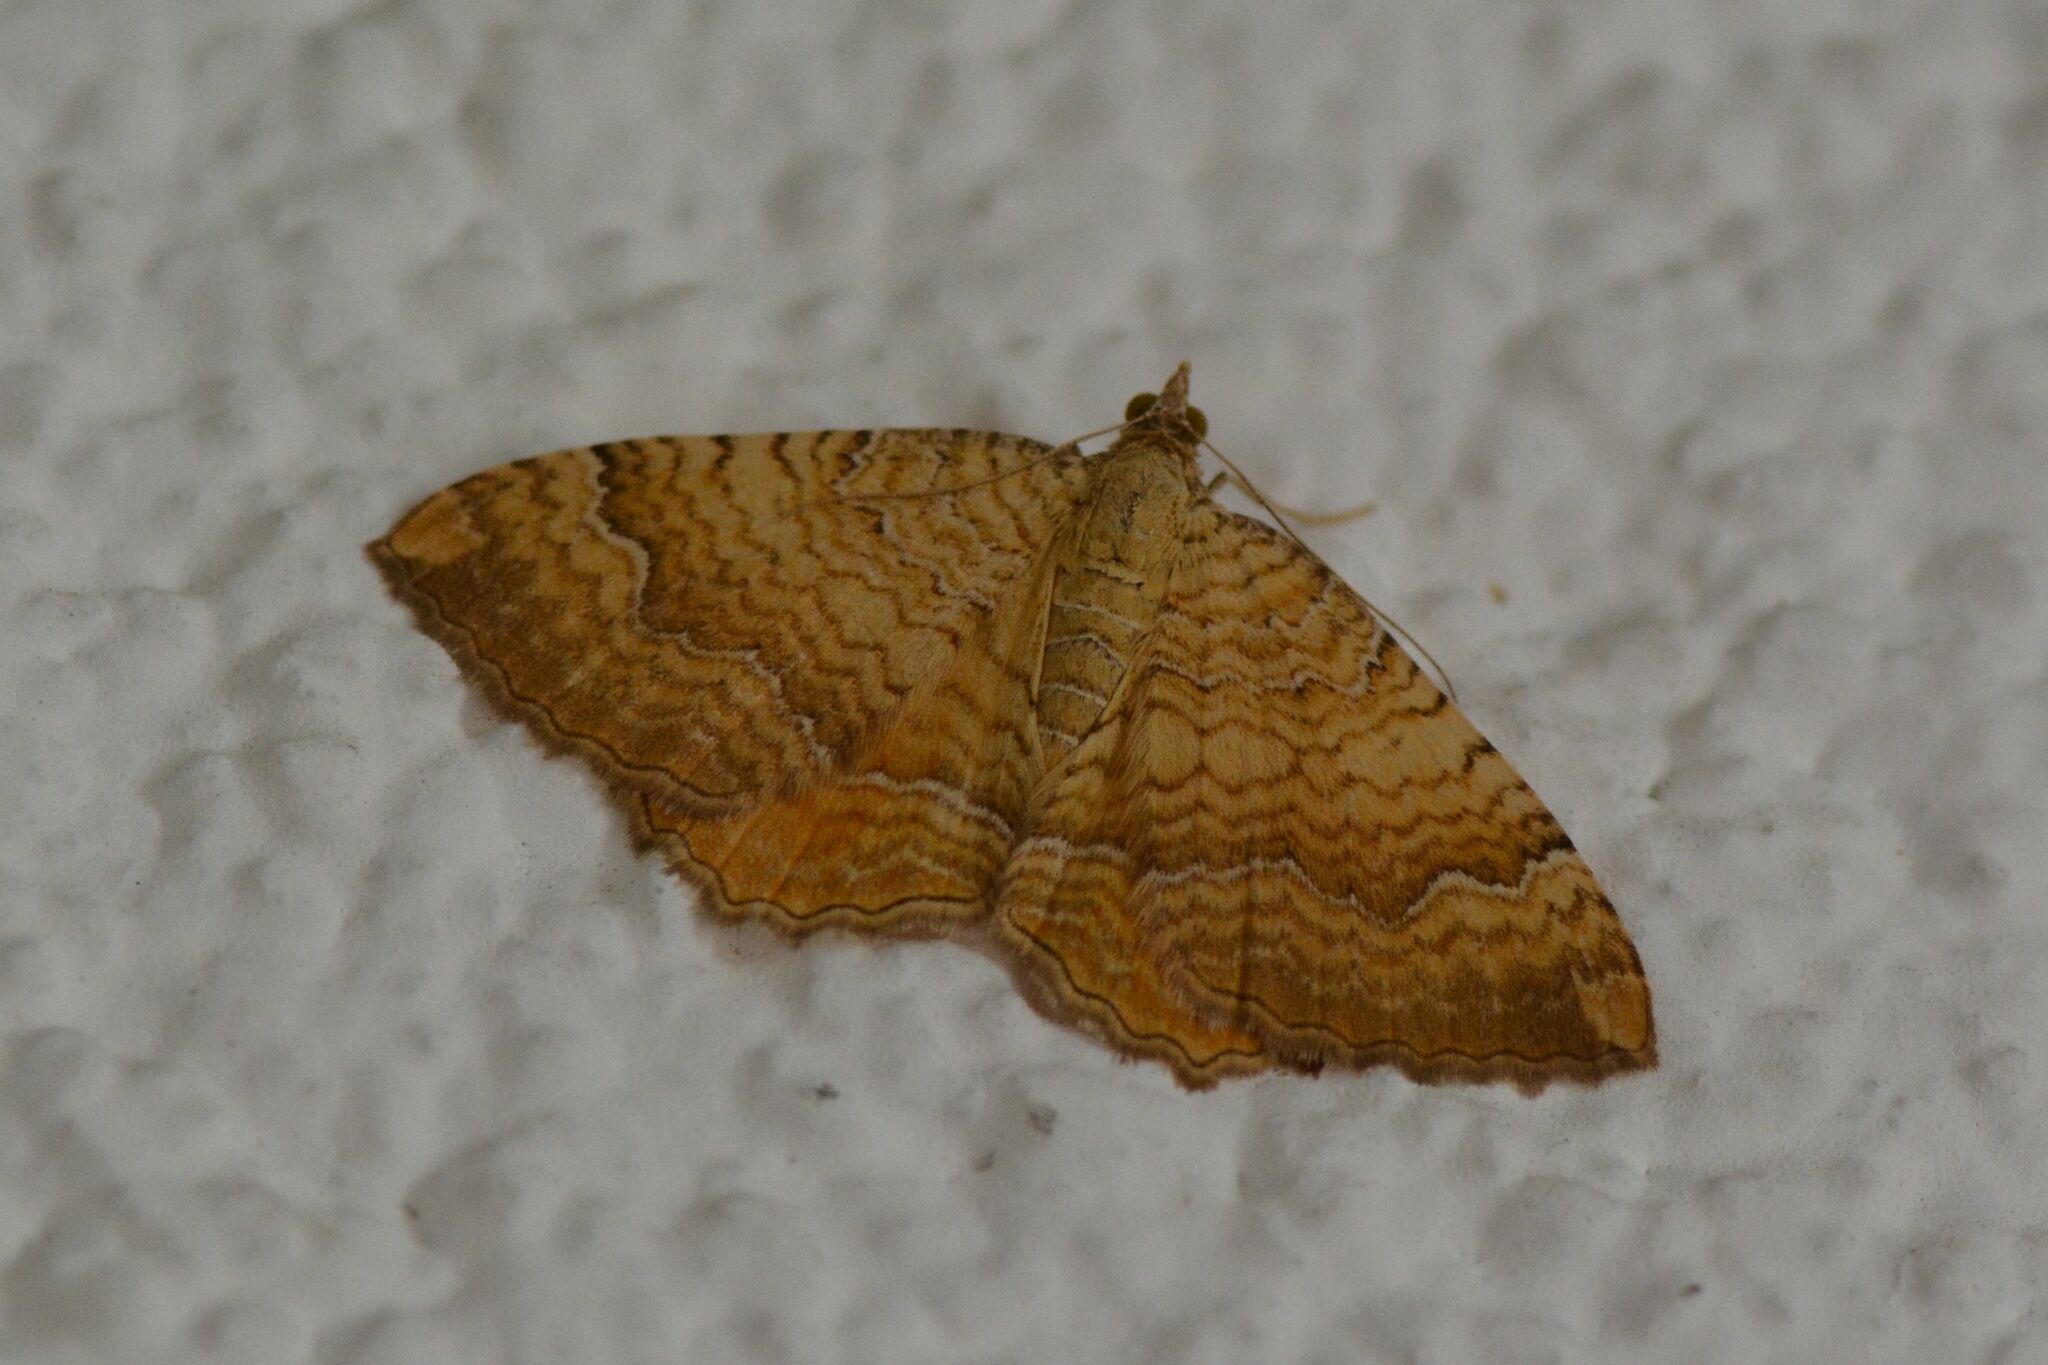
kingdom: Animalia
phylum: Arthropoda
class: Insecta
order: Lepidoptera
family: Geometridae
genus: Camptogramma
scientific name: Camptogramma bilineata
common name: Yellow shell
